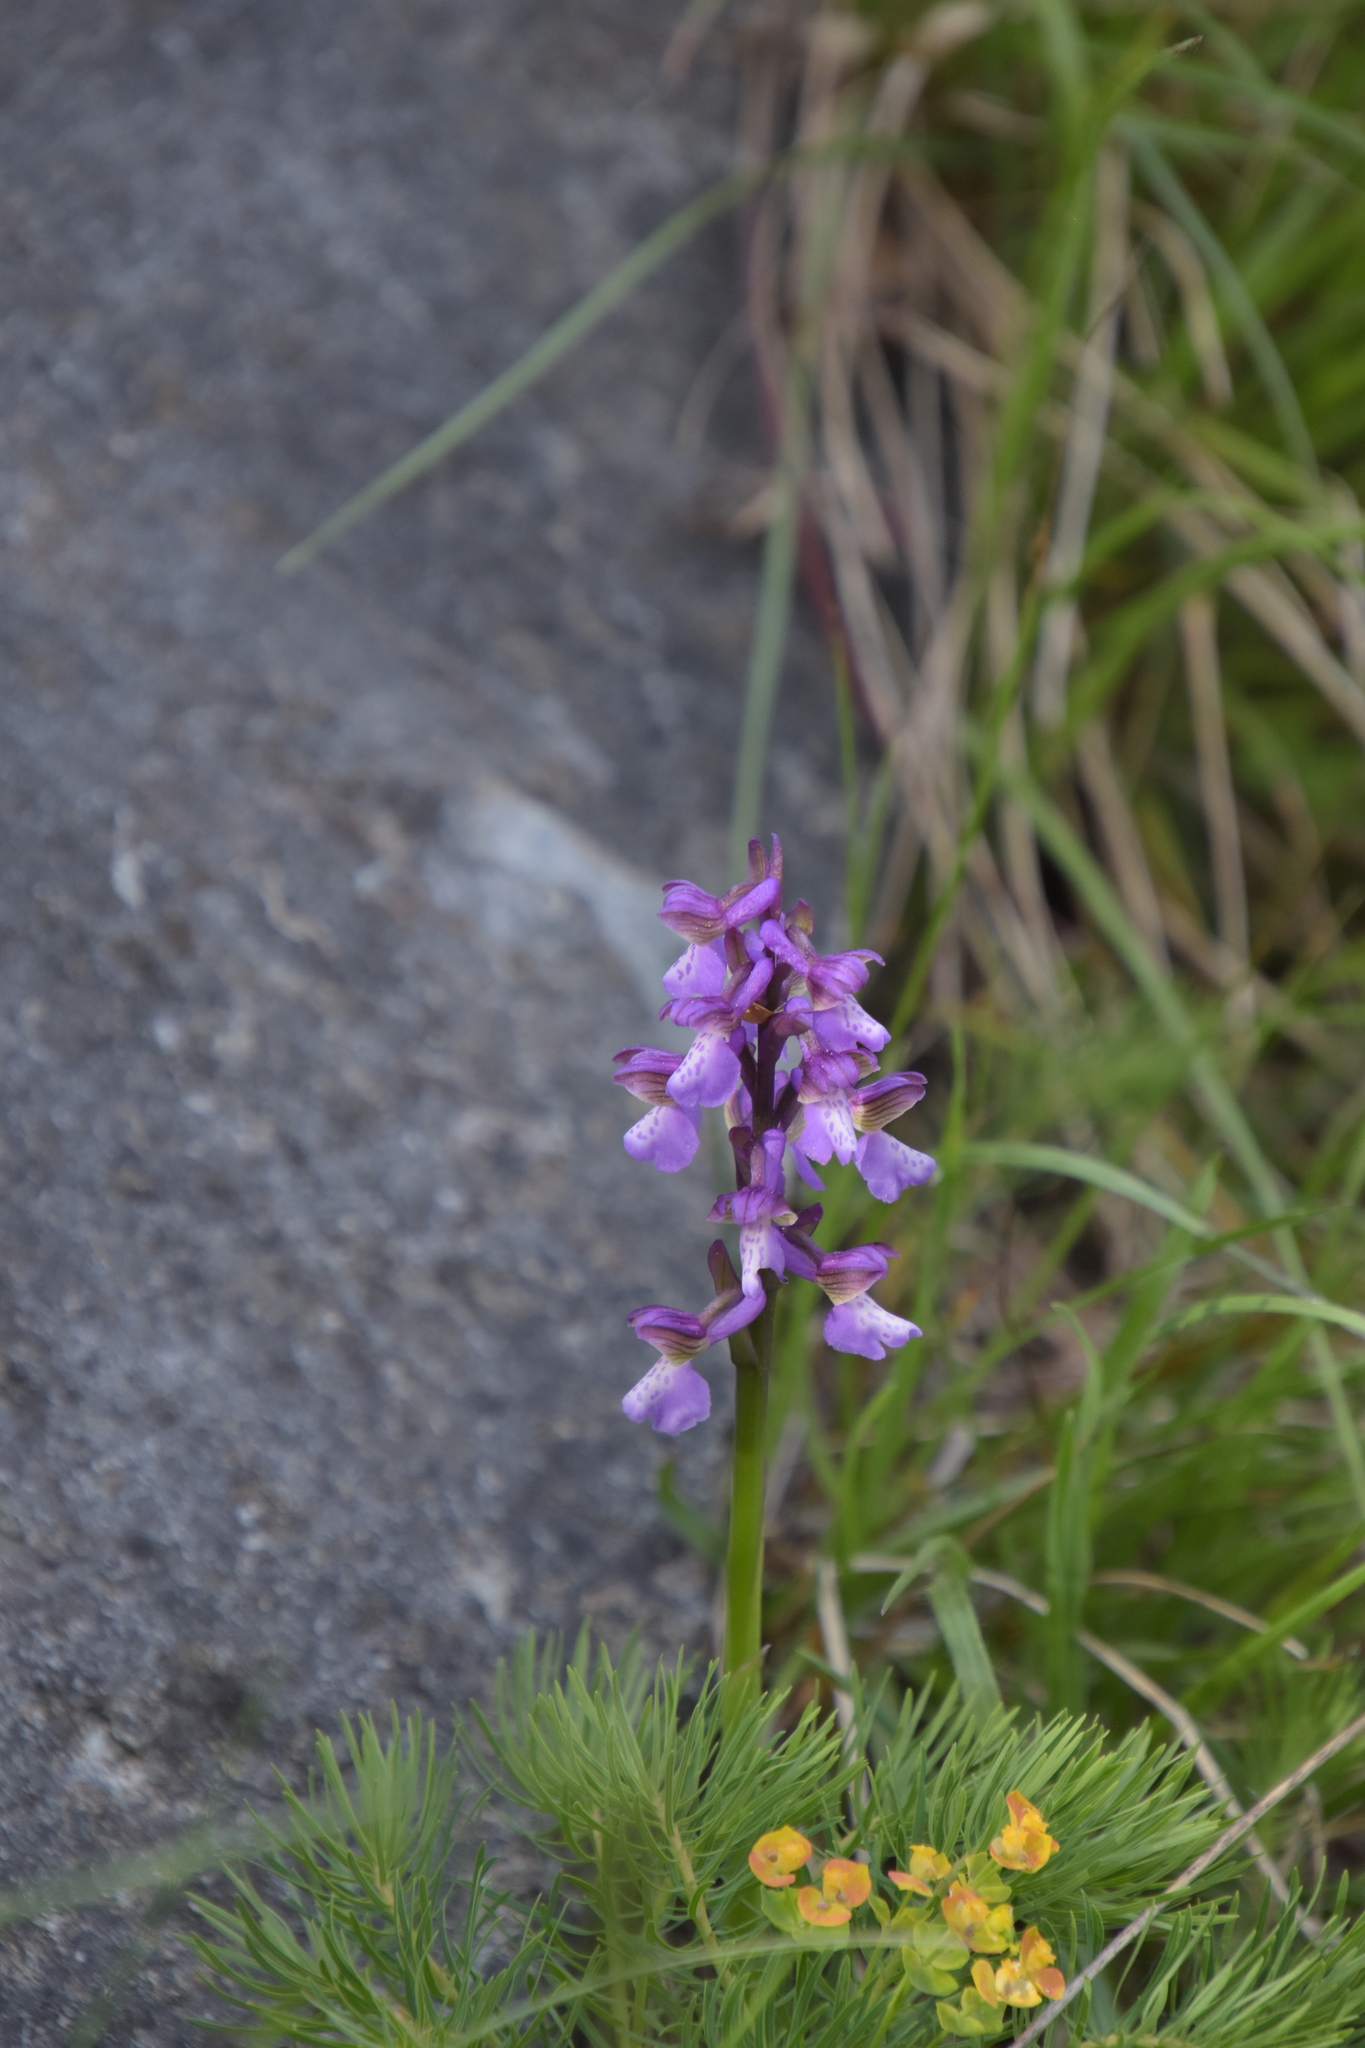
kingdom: Plantae
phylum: Tracheophyta
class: Liliopsida
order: Asparagales
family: Orchidaceae
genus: Anacamptis
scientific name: Anacamptis morio
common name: Green-winged orchid
